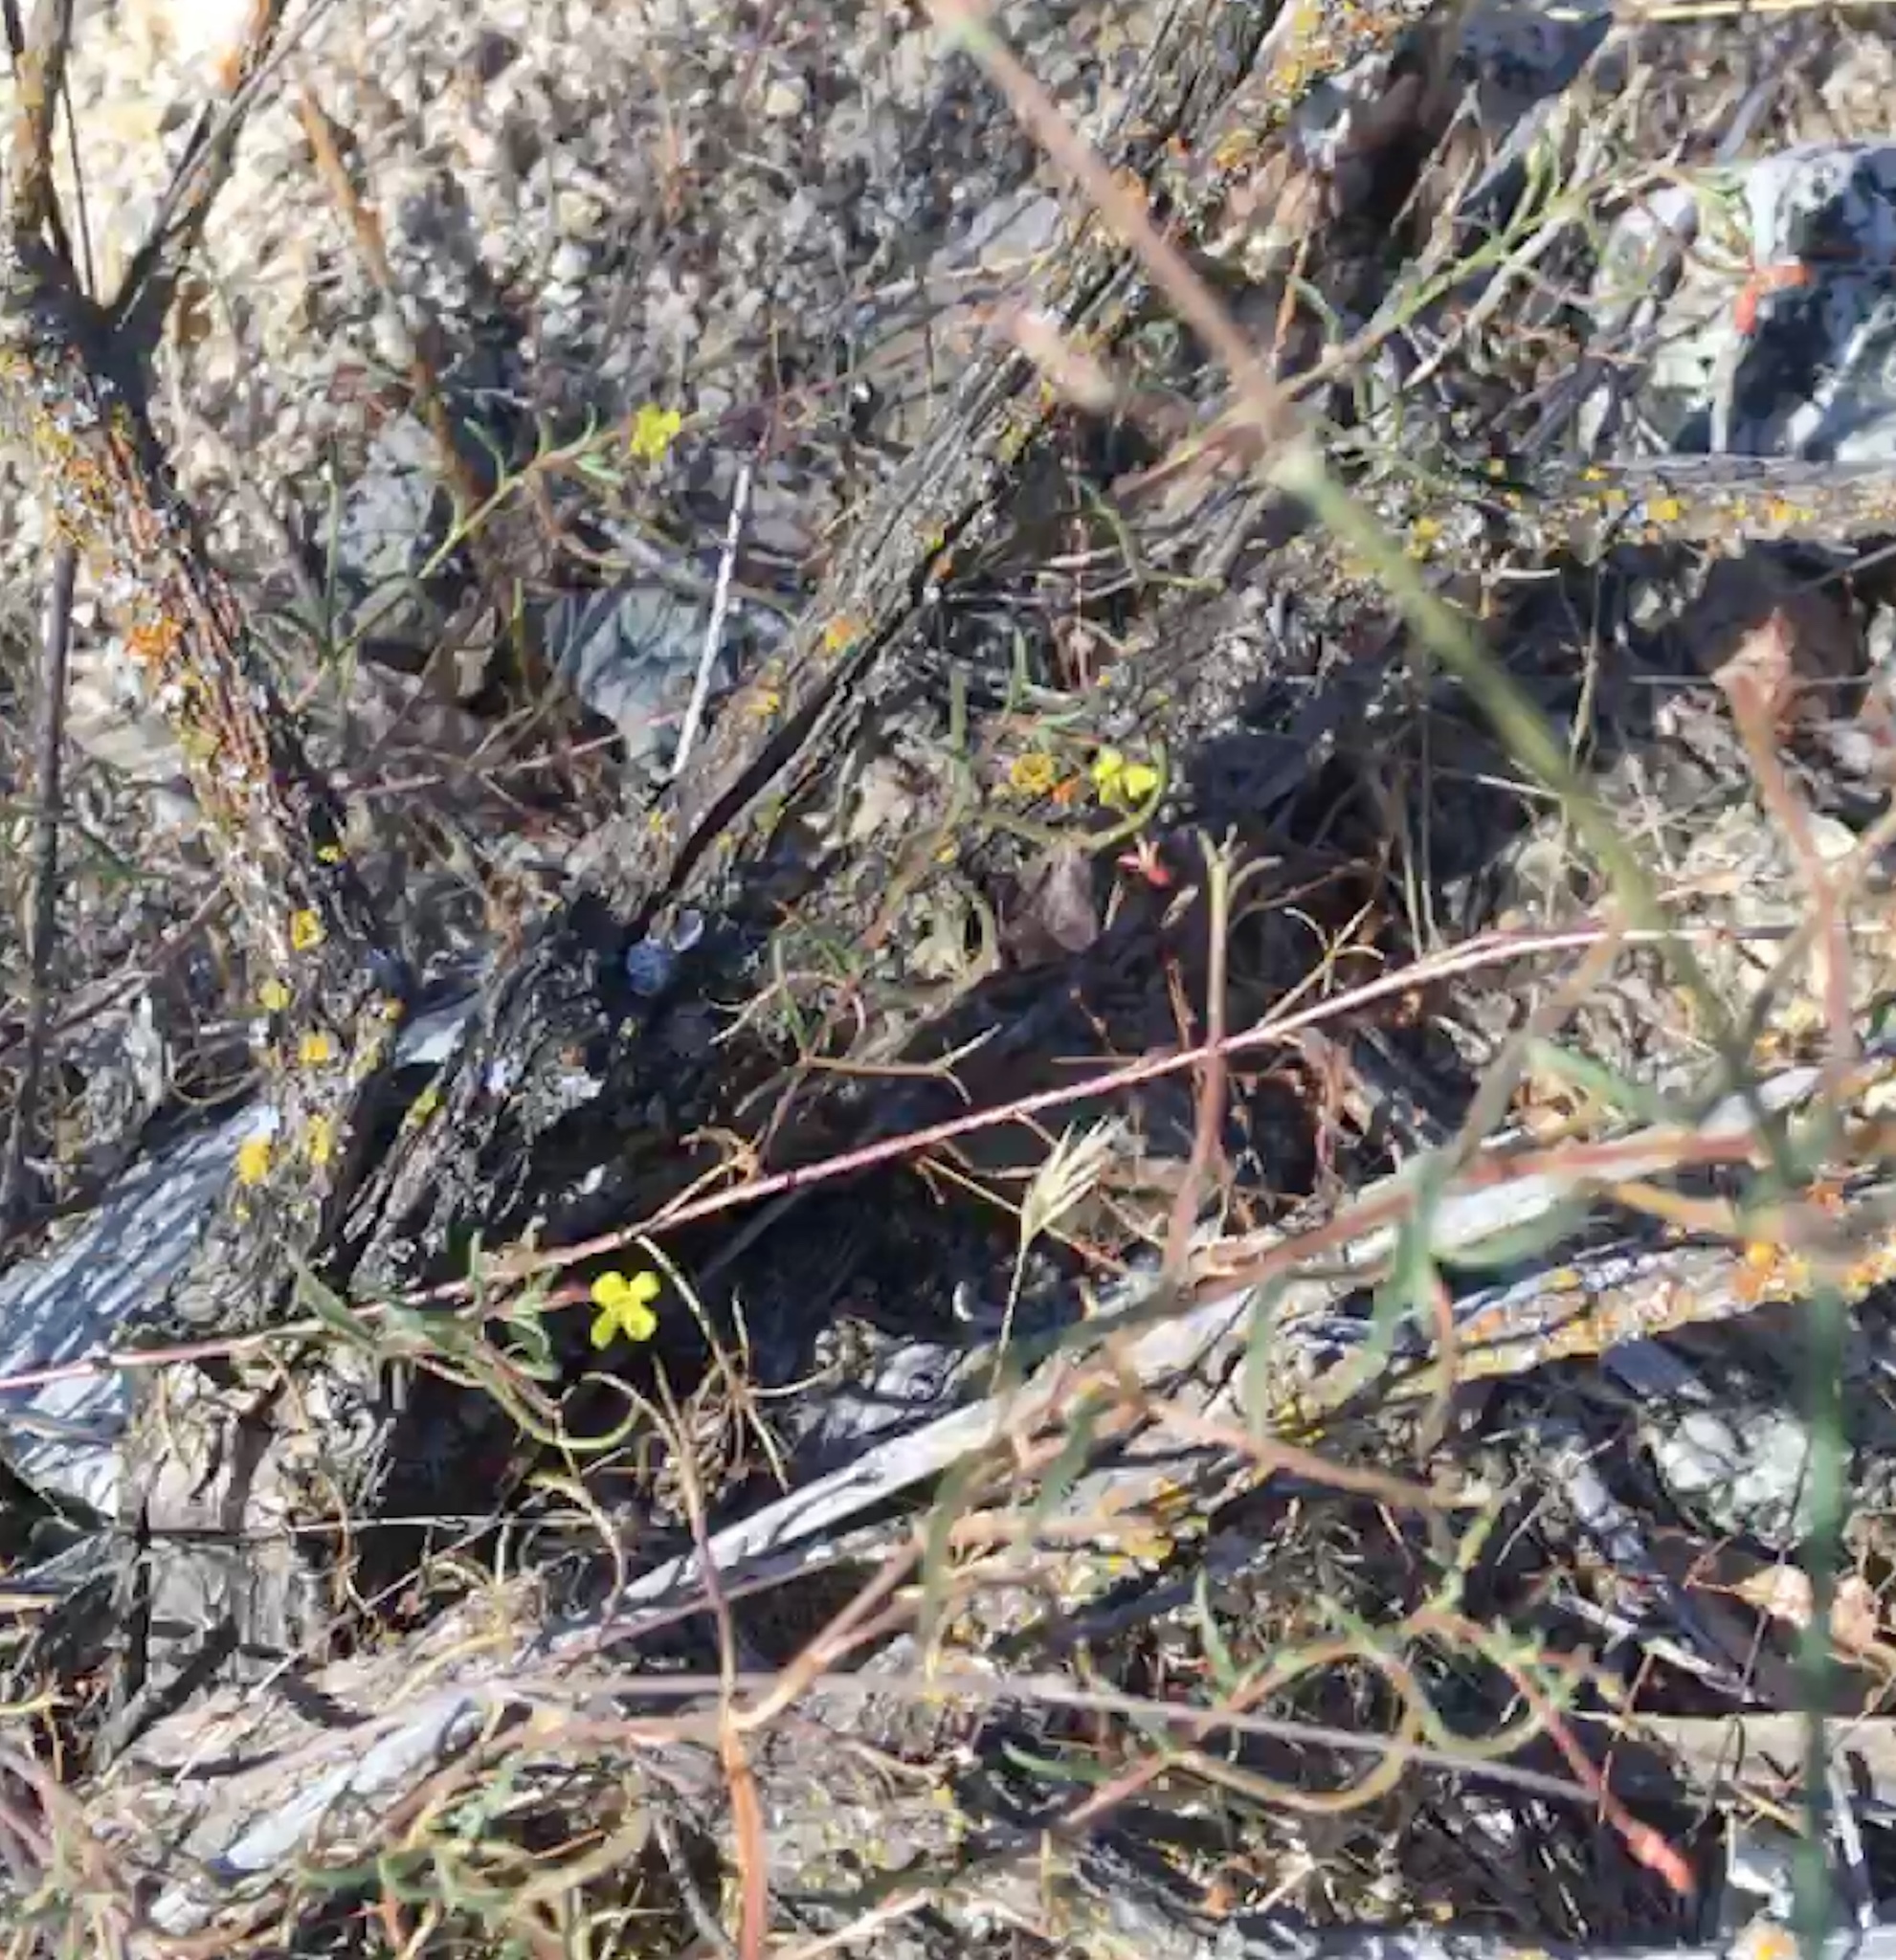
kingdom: Plantae
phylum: Tracheophyta
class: Magnoliopsida
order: Myrtales
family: Onagraceae
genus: Camissonia
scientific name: Camissonia contorta
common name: Contorted suncup
